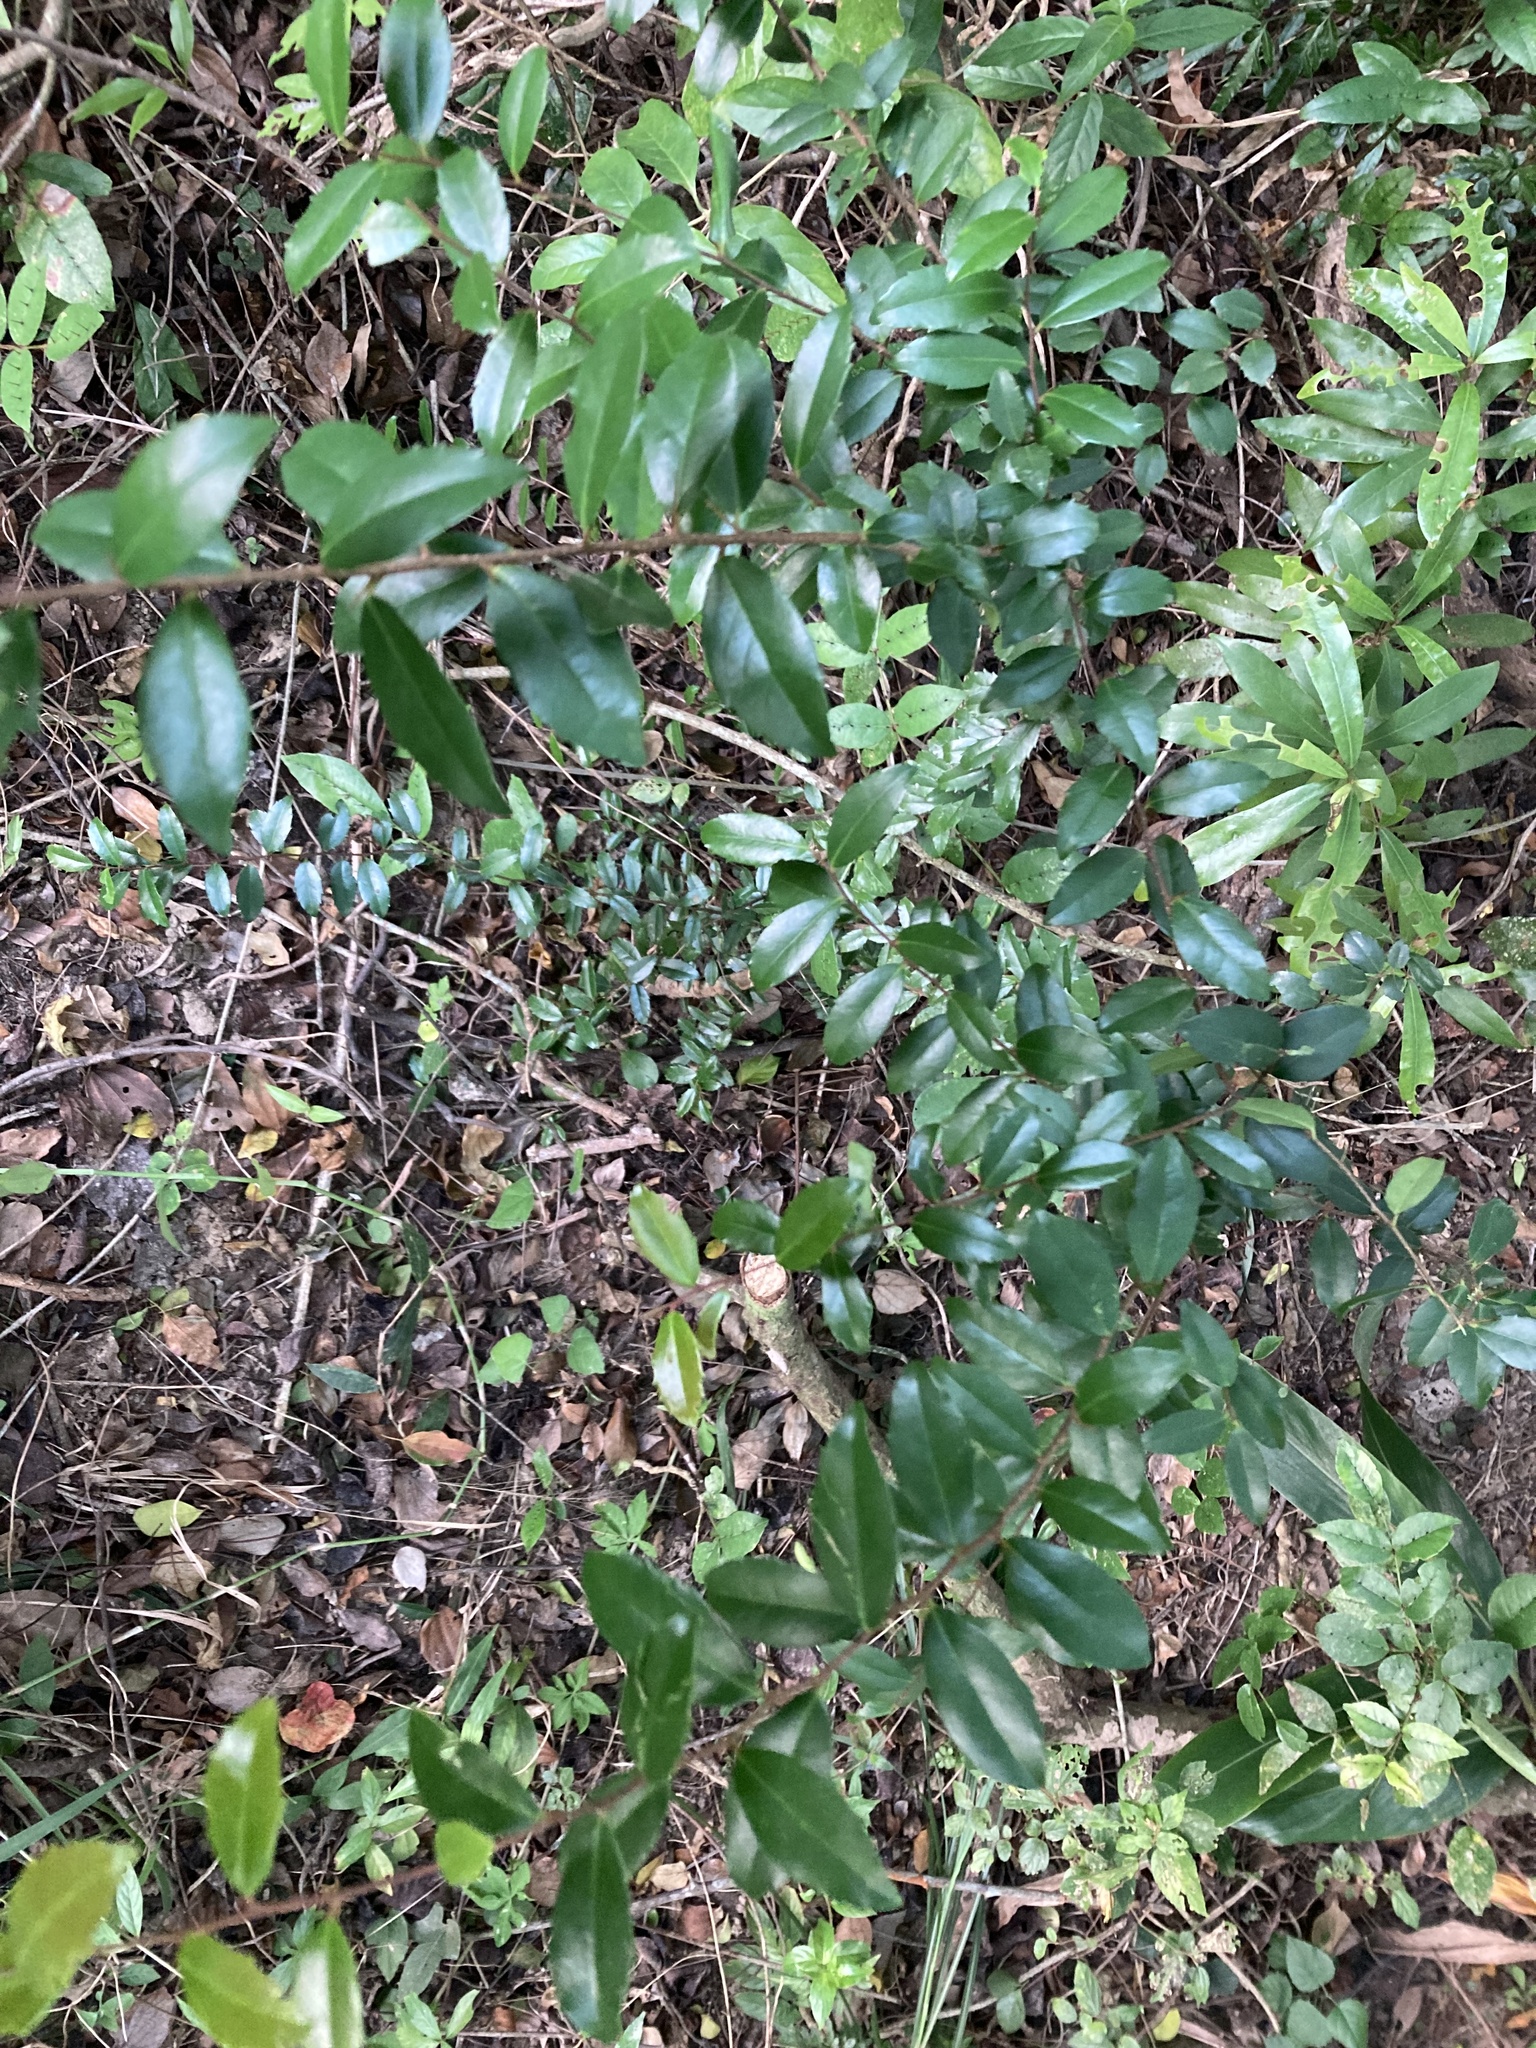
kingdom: Plantae
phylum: Tracheophyta
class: Magnoliopsida
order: Malpighiales
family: Salicaceae
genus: Scolopia
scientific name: Scolopia oldhamii
